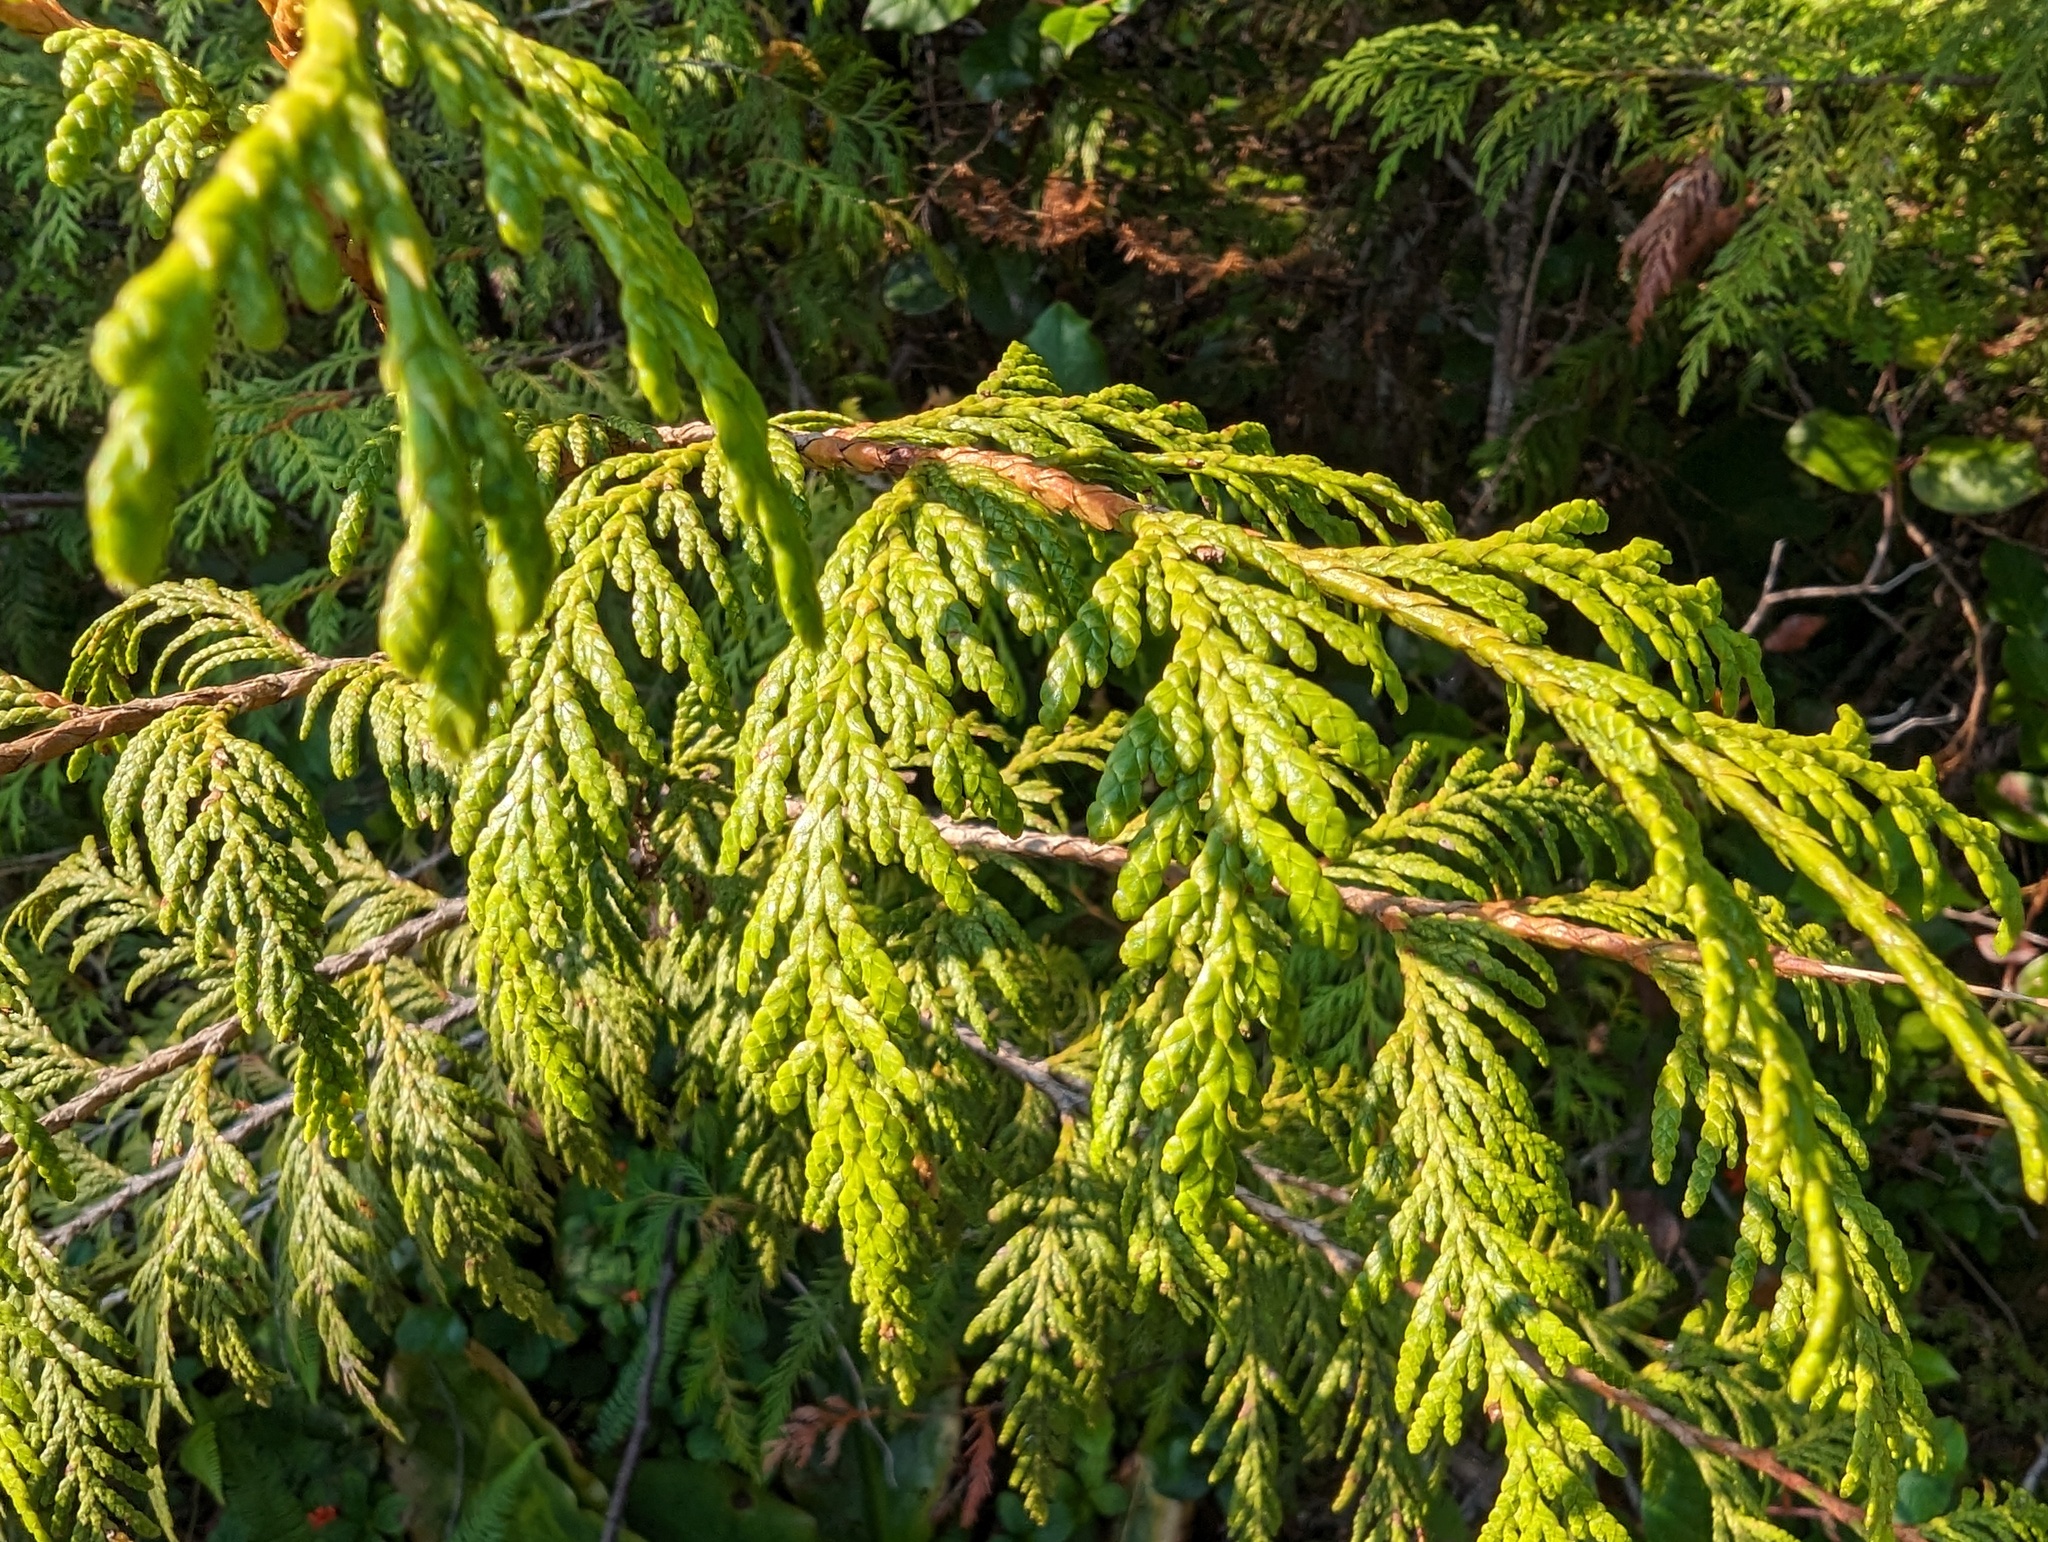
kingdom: Plantae
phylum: Tracheophyta
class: Pinopsida
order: Pinales
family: Cupressaceae
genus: Thuja
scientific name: Thuja plicata
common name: Western red-cedar
